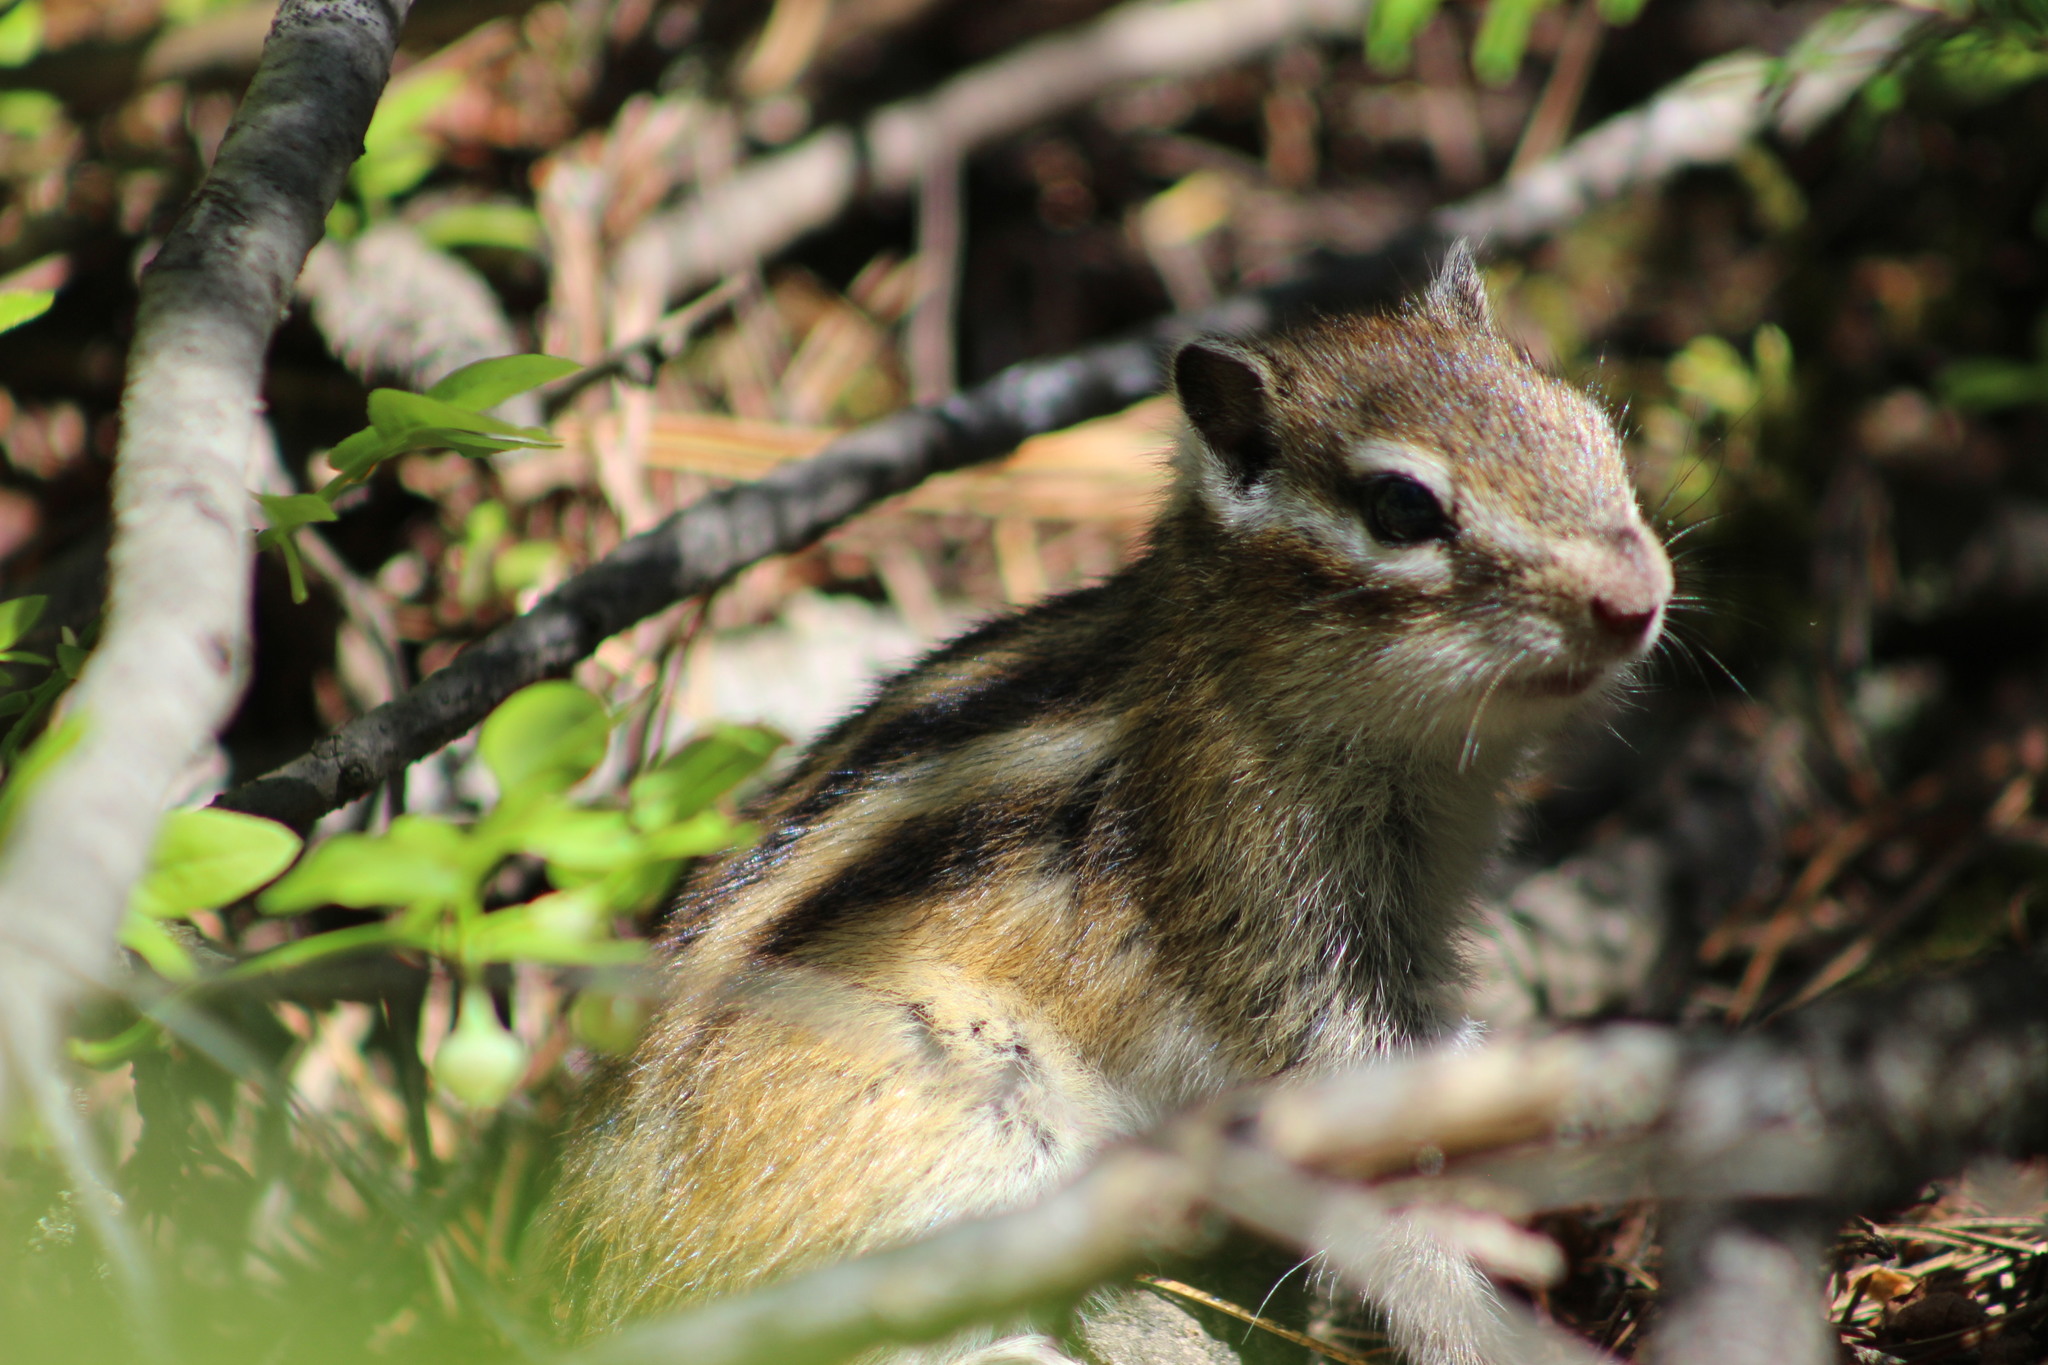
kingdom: Animalia
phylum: Chordata
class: Mammalia
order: Rodentia
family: Sciuridae
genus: Tamias
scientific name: Tamias sibiricus
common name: Siberian chipmunk
